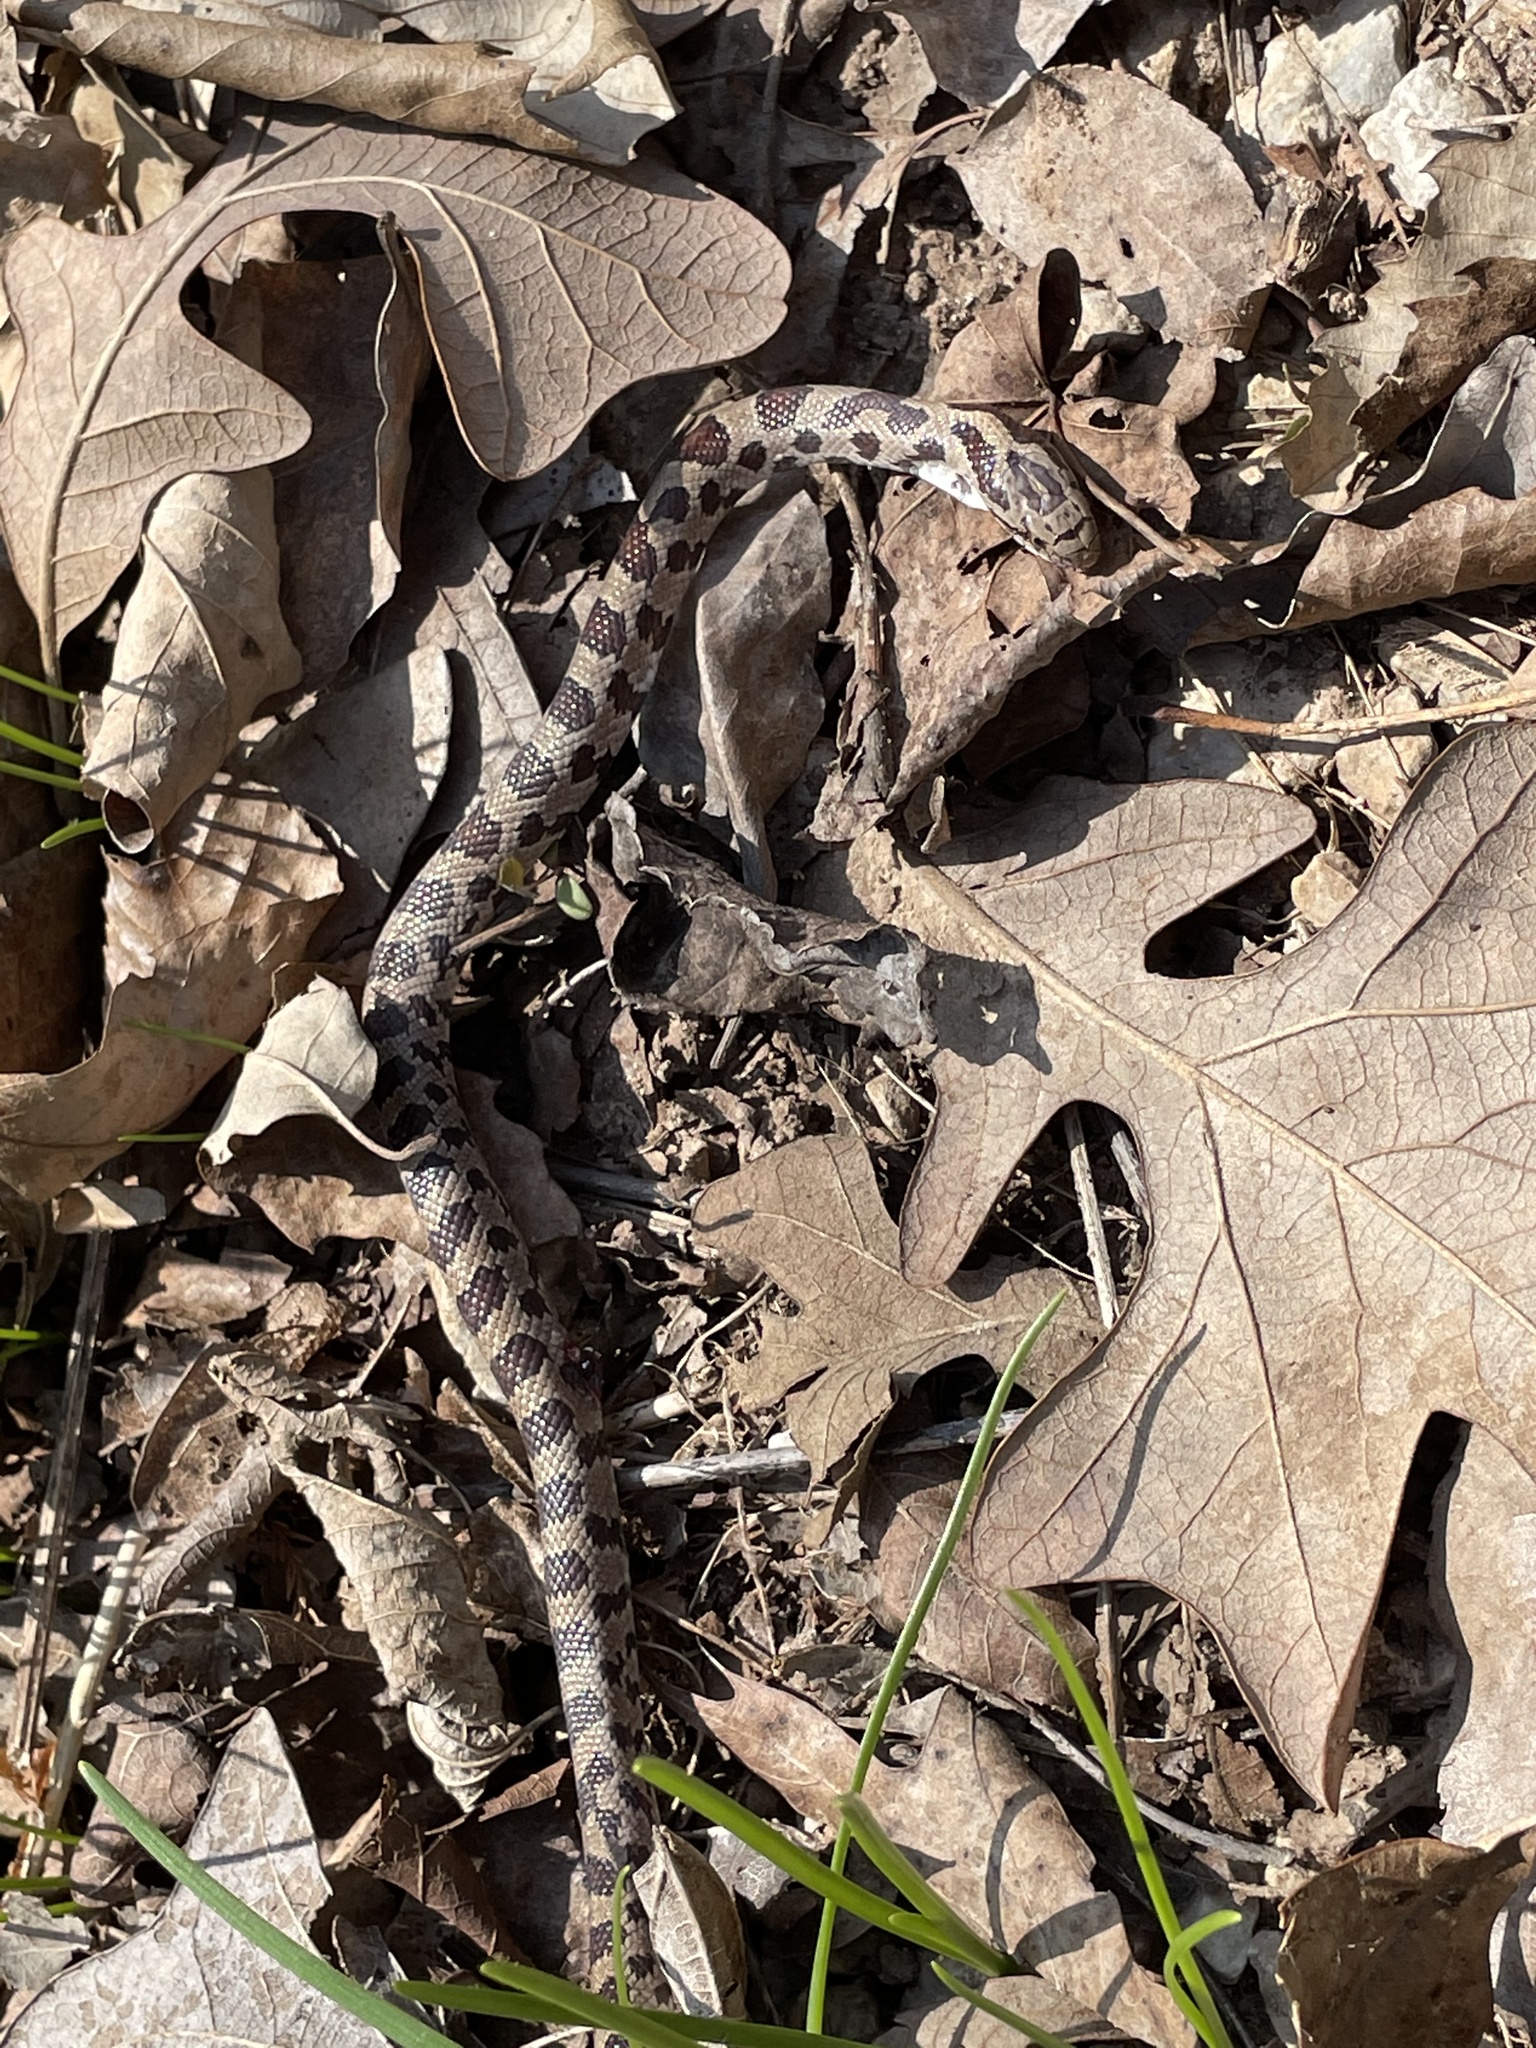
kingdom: Animalia
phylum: Chordata
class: Squamata
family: Colubridae
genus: Lampropeltis
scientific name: Lampropeltis calligaster
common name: Prairie kingsnake
